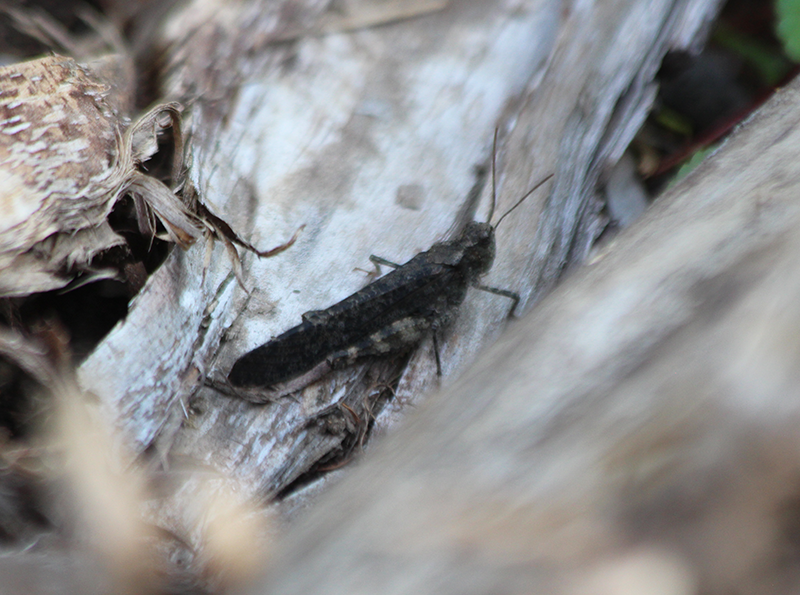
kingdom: Animalia
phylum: Arthropoda
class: Insecta
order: Orthoptera
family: Acrididae
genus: Trimerotropis
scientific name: Trimerotropis verruculata
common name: Crackling forest grasshopper
